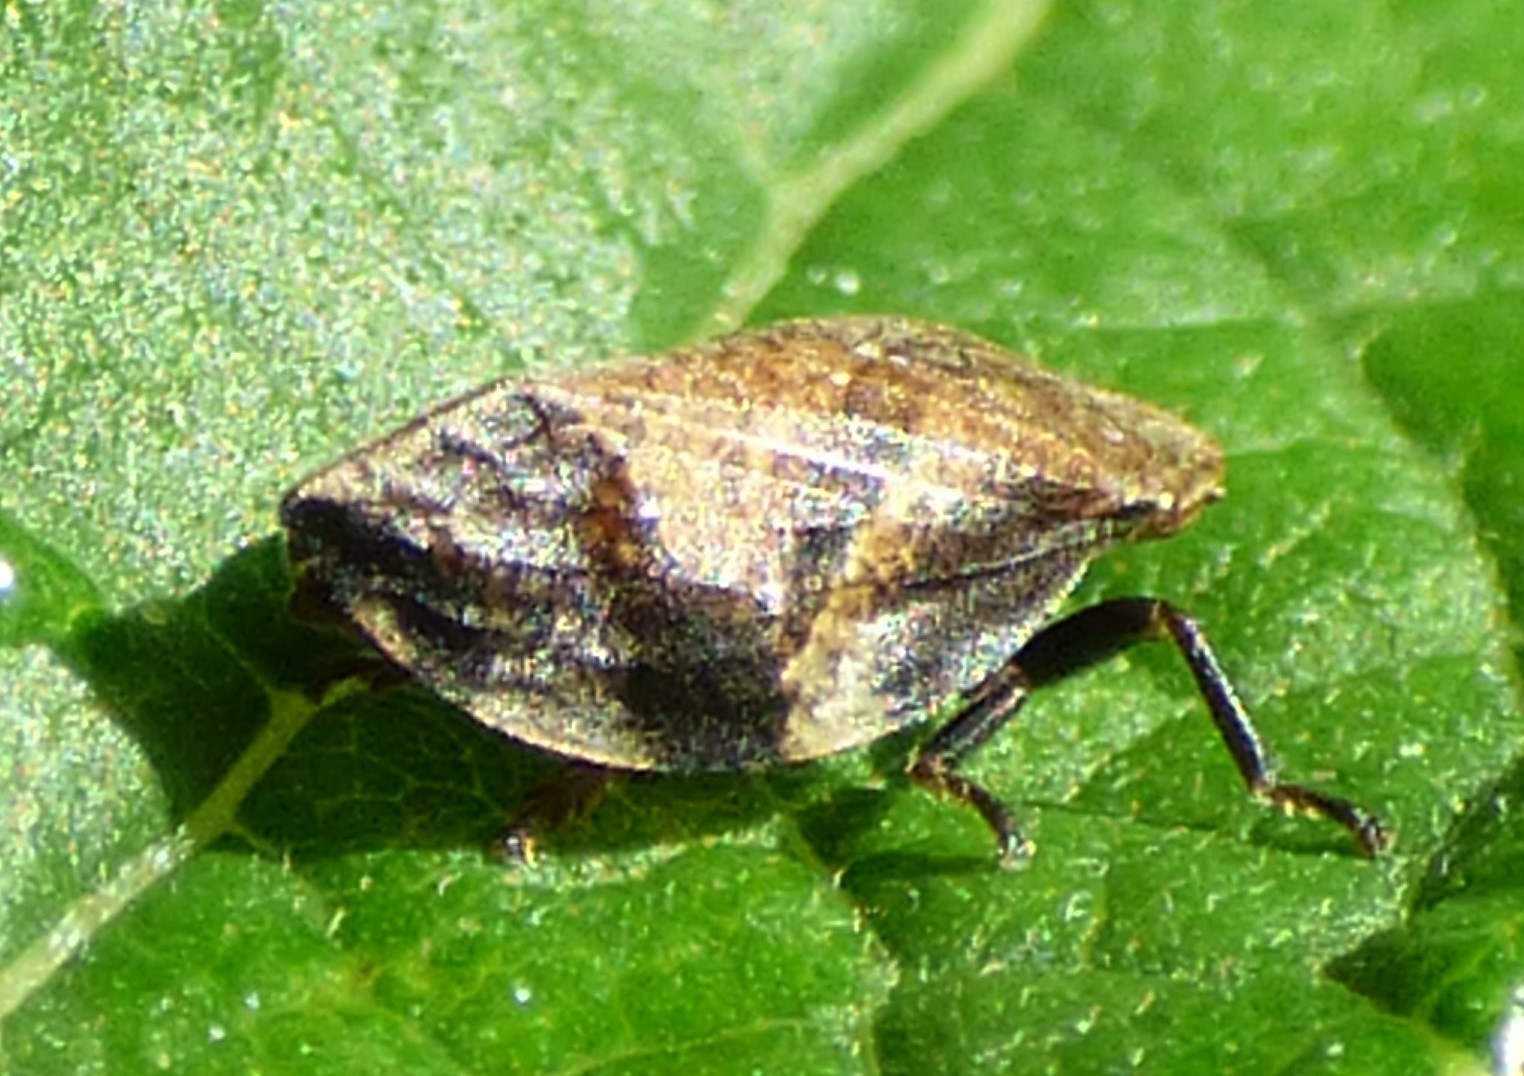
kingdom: Animalia
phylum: Arthropoda
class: Insecta
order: Hemiptera
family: Aphrophoridae
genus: Lepyronia
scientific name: Lepyronia quadrangularis
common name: Diamond-backed spittlebug
